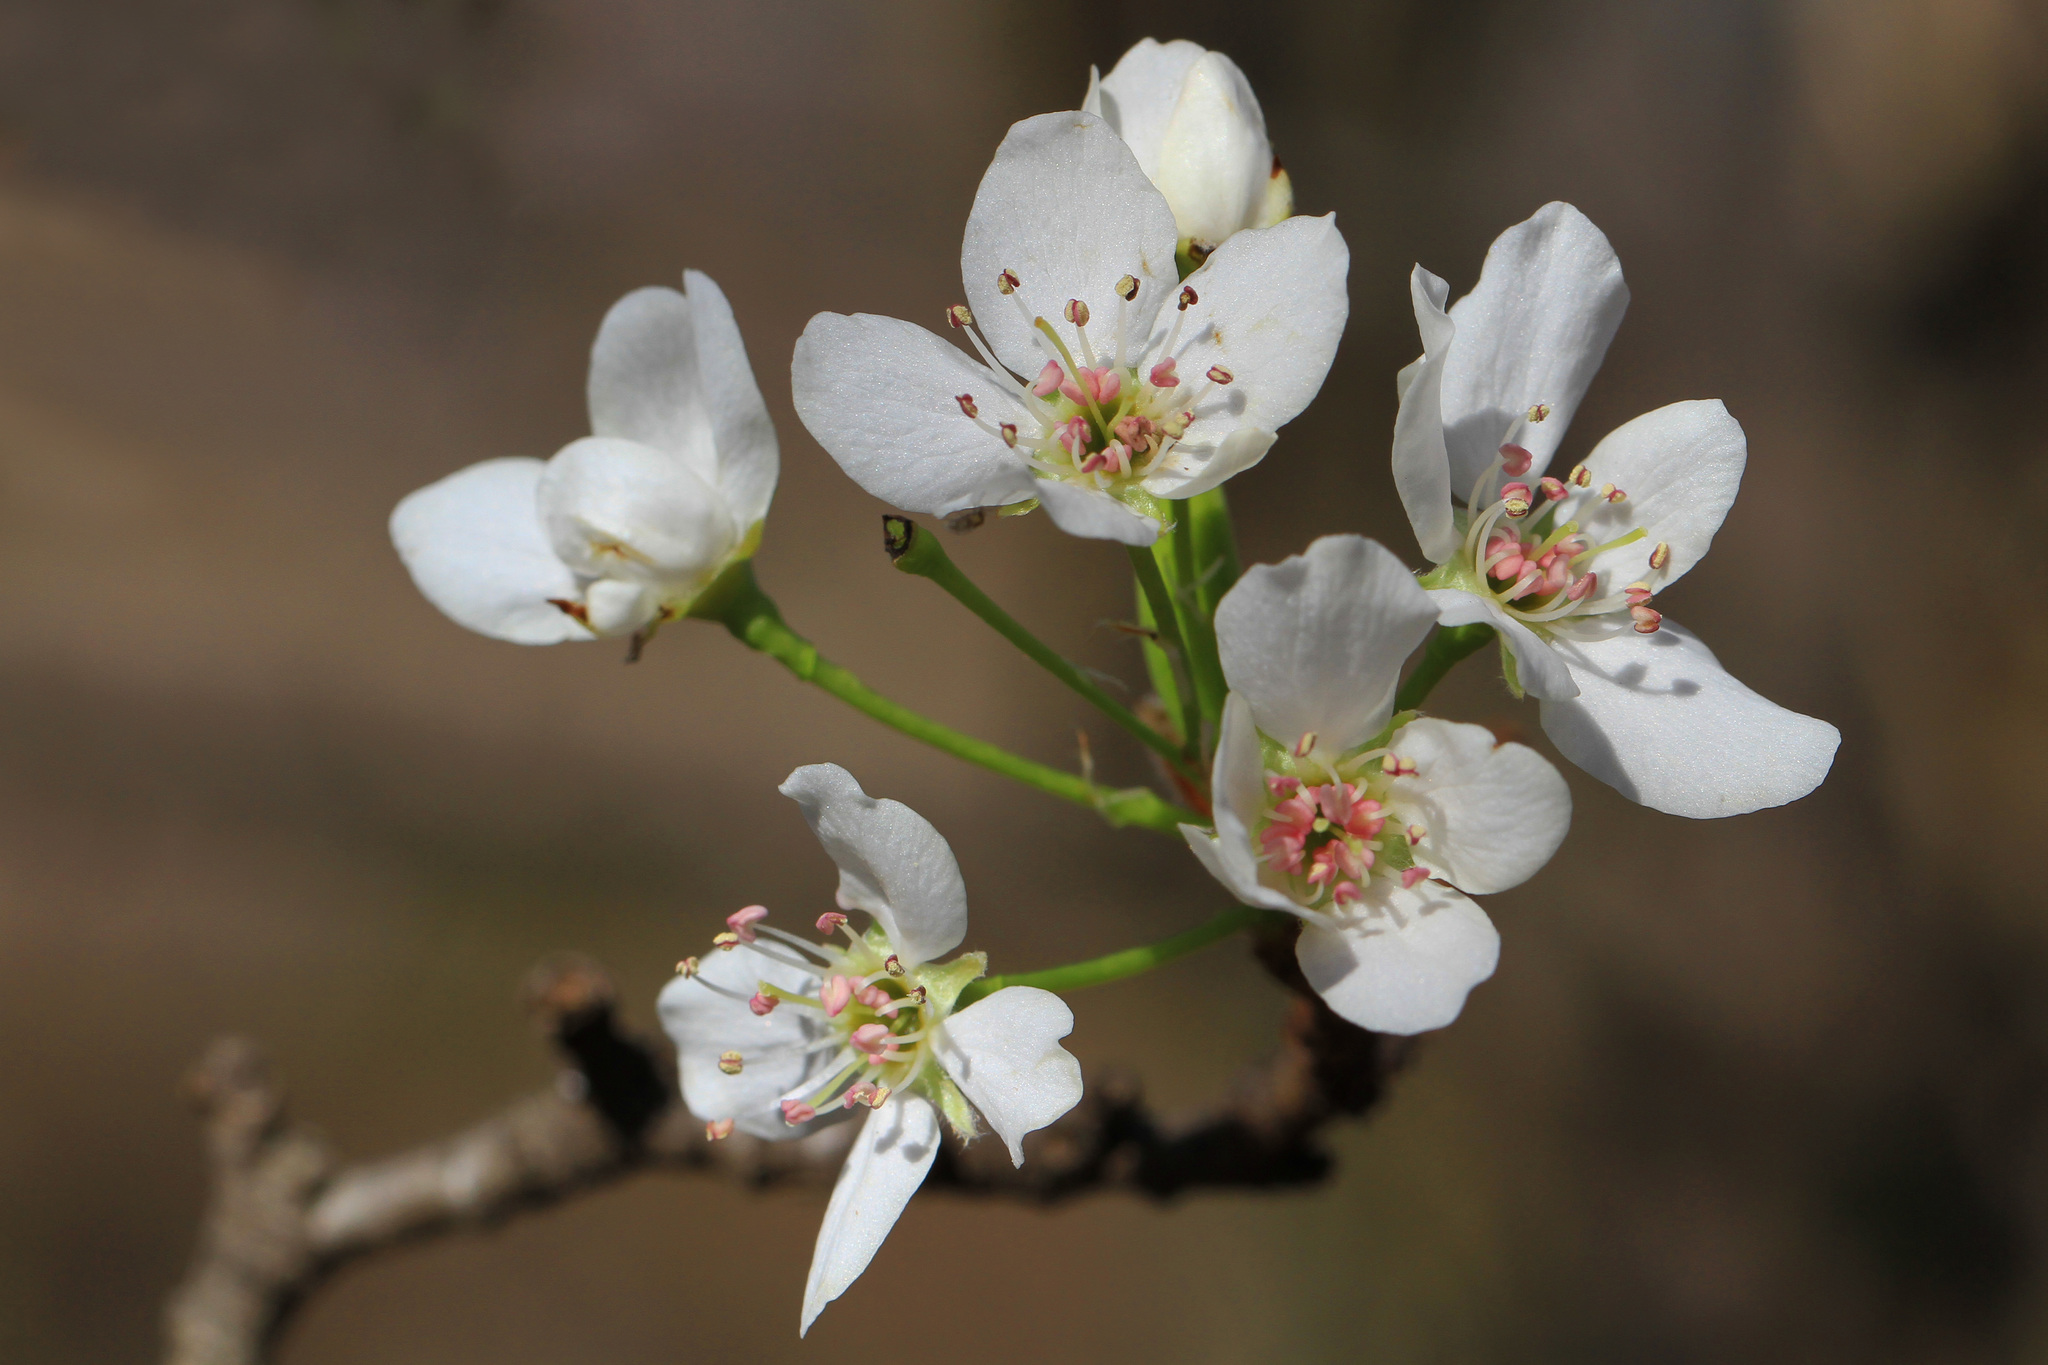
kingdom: Plantae
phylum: Tracheophyta
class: Magnoliopsida
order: Rosales
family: Rosaceae
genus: Pyrus
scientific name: Pyrus calleryana
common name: Callery pear
